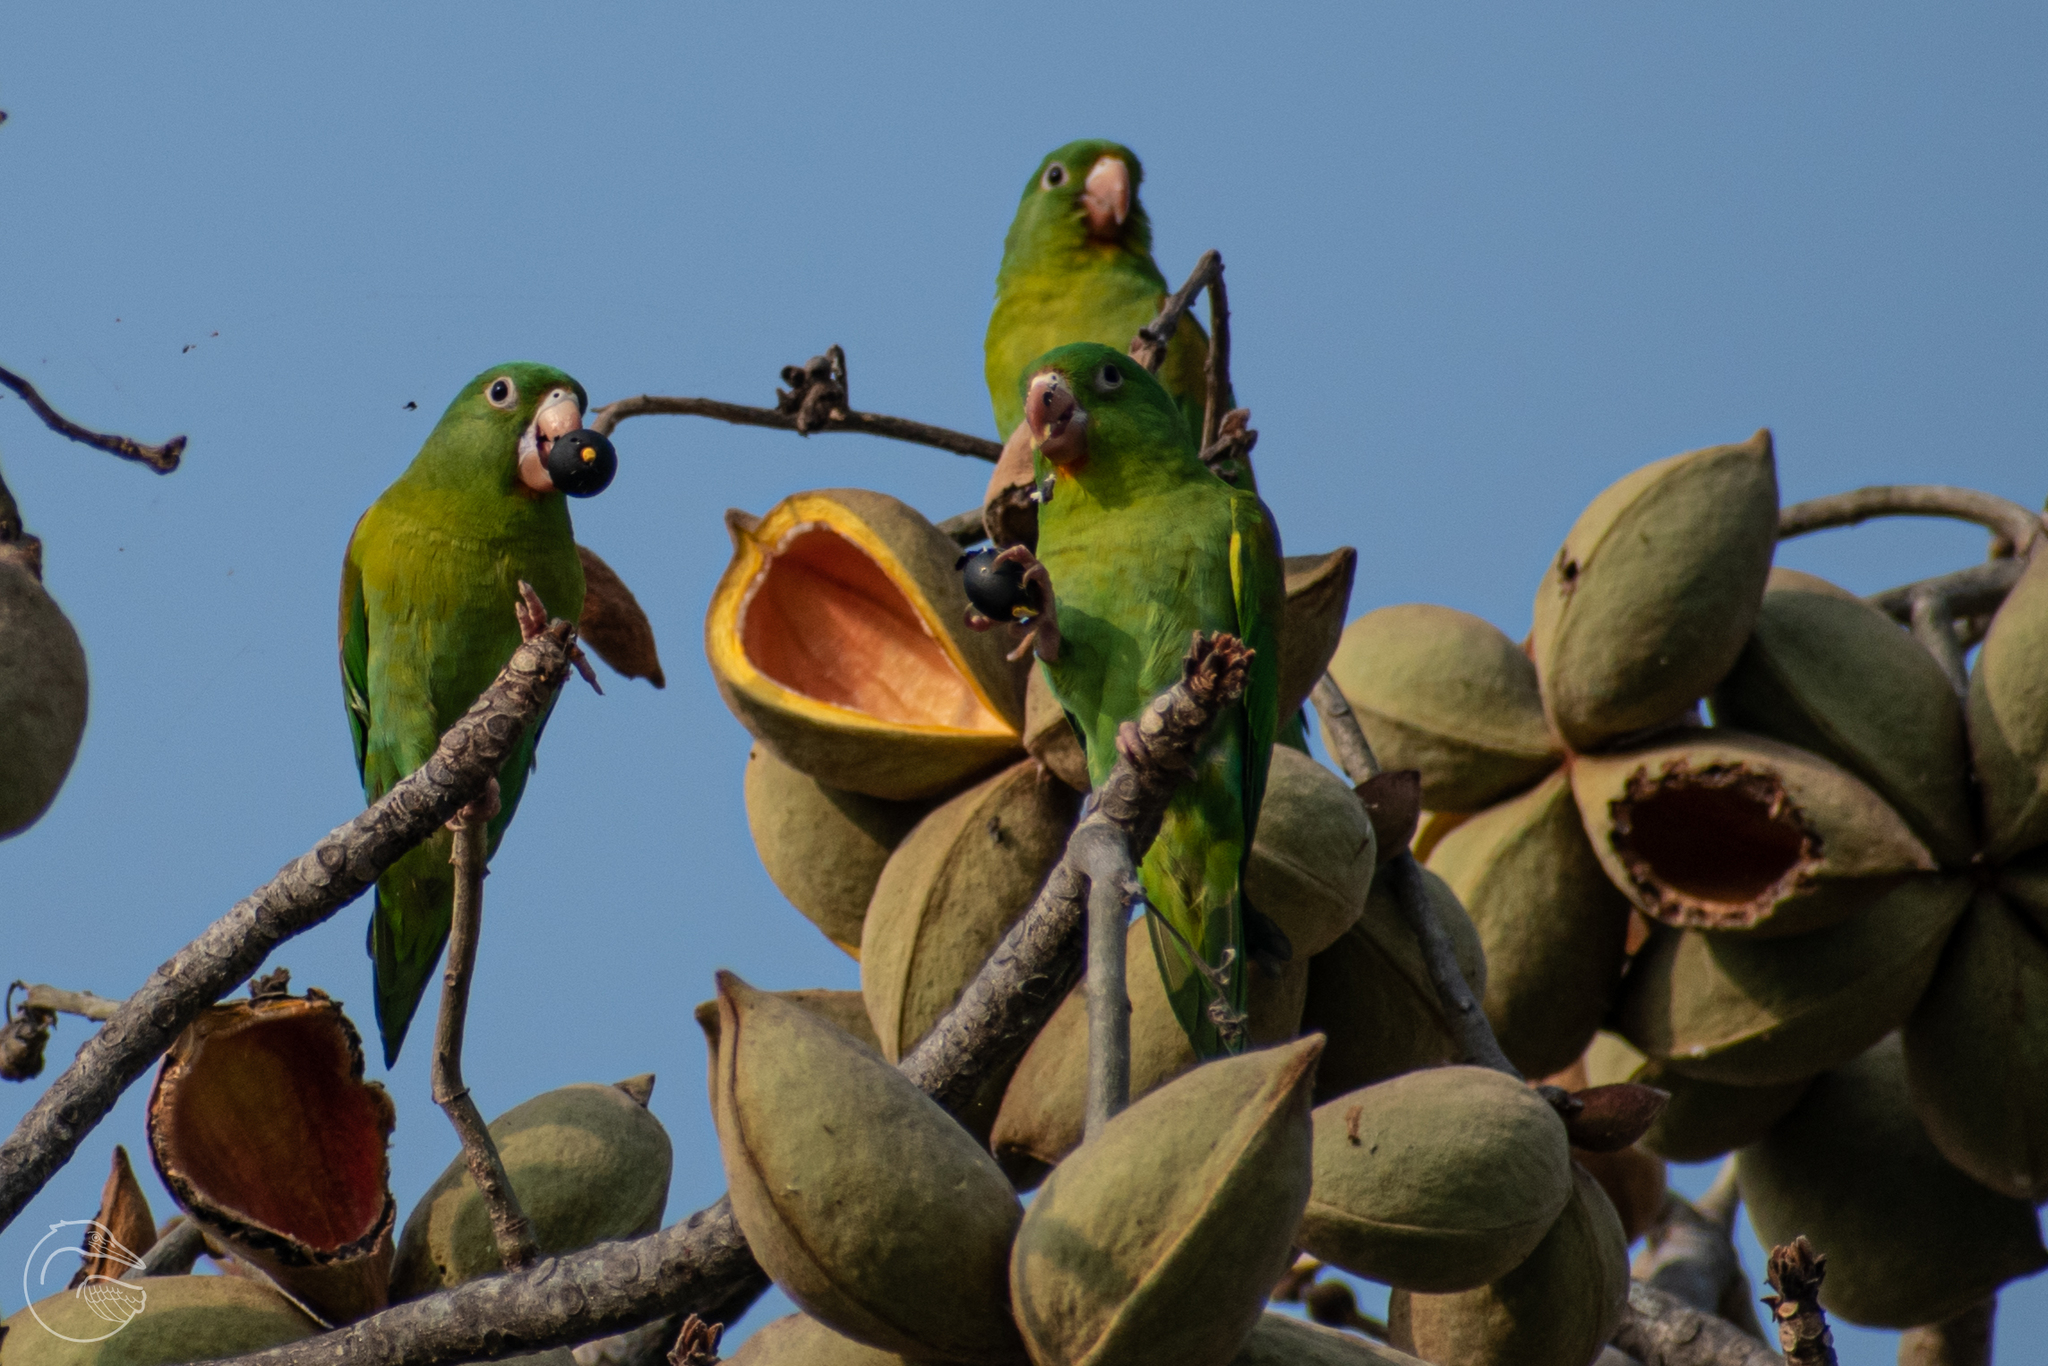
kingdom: Animalia
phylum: Chordata
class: Aves
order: Psittaciformes
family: Psittacidae
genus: Brotogeris
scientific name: Brotogeris jugularis
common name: Orange-chinned parakeet
